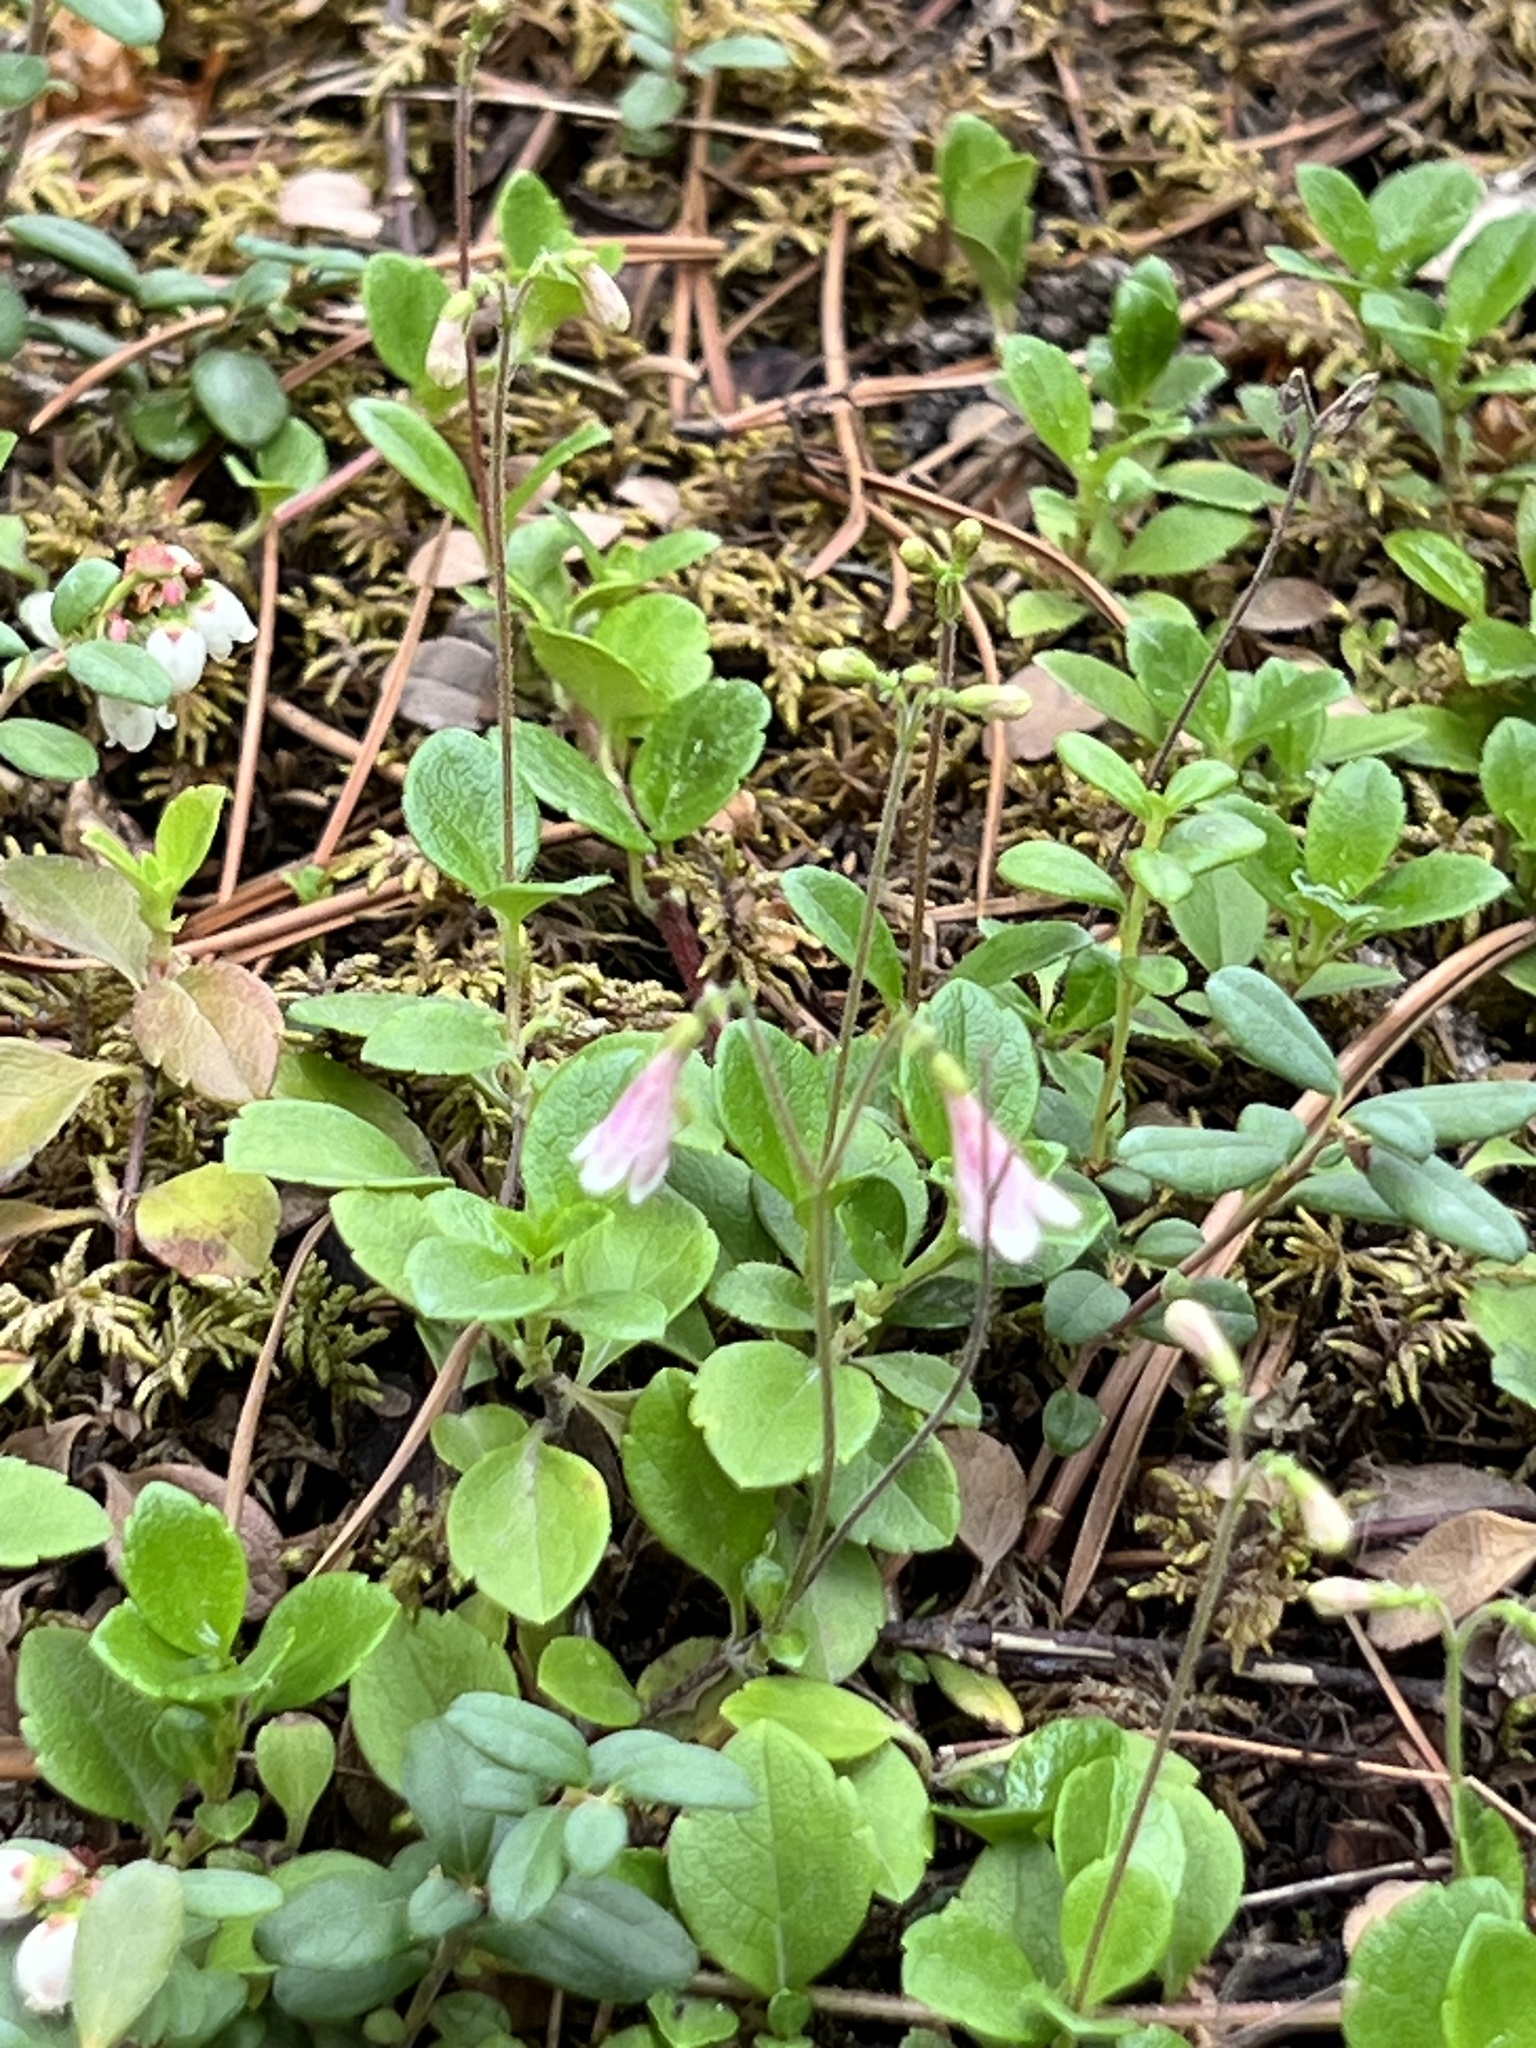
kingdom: Plantae
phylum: Tracheophyta
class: Magnoliopsida
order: Dipsacales
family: Caprifoliaceae
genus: Linnaea
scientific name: Linnaea borealis
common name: Twinflower
